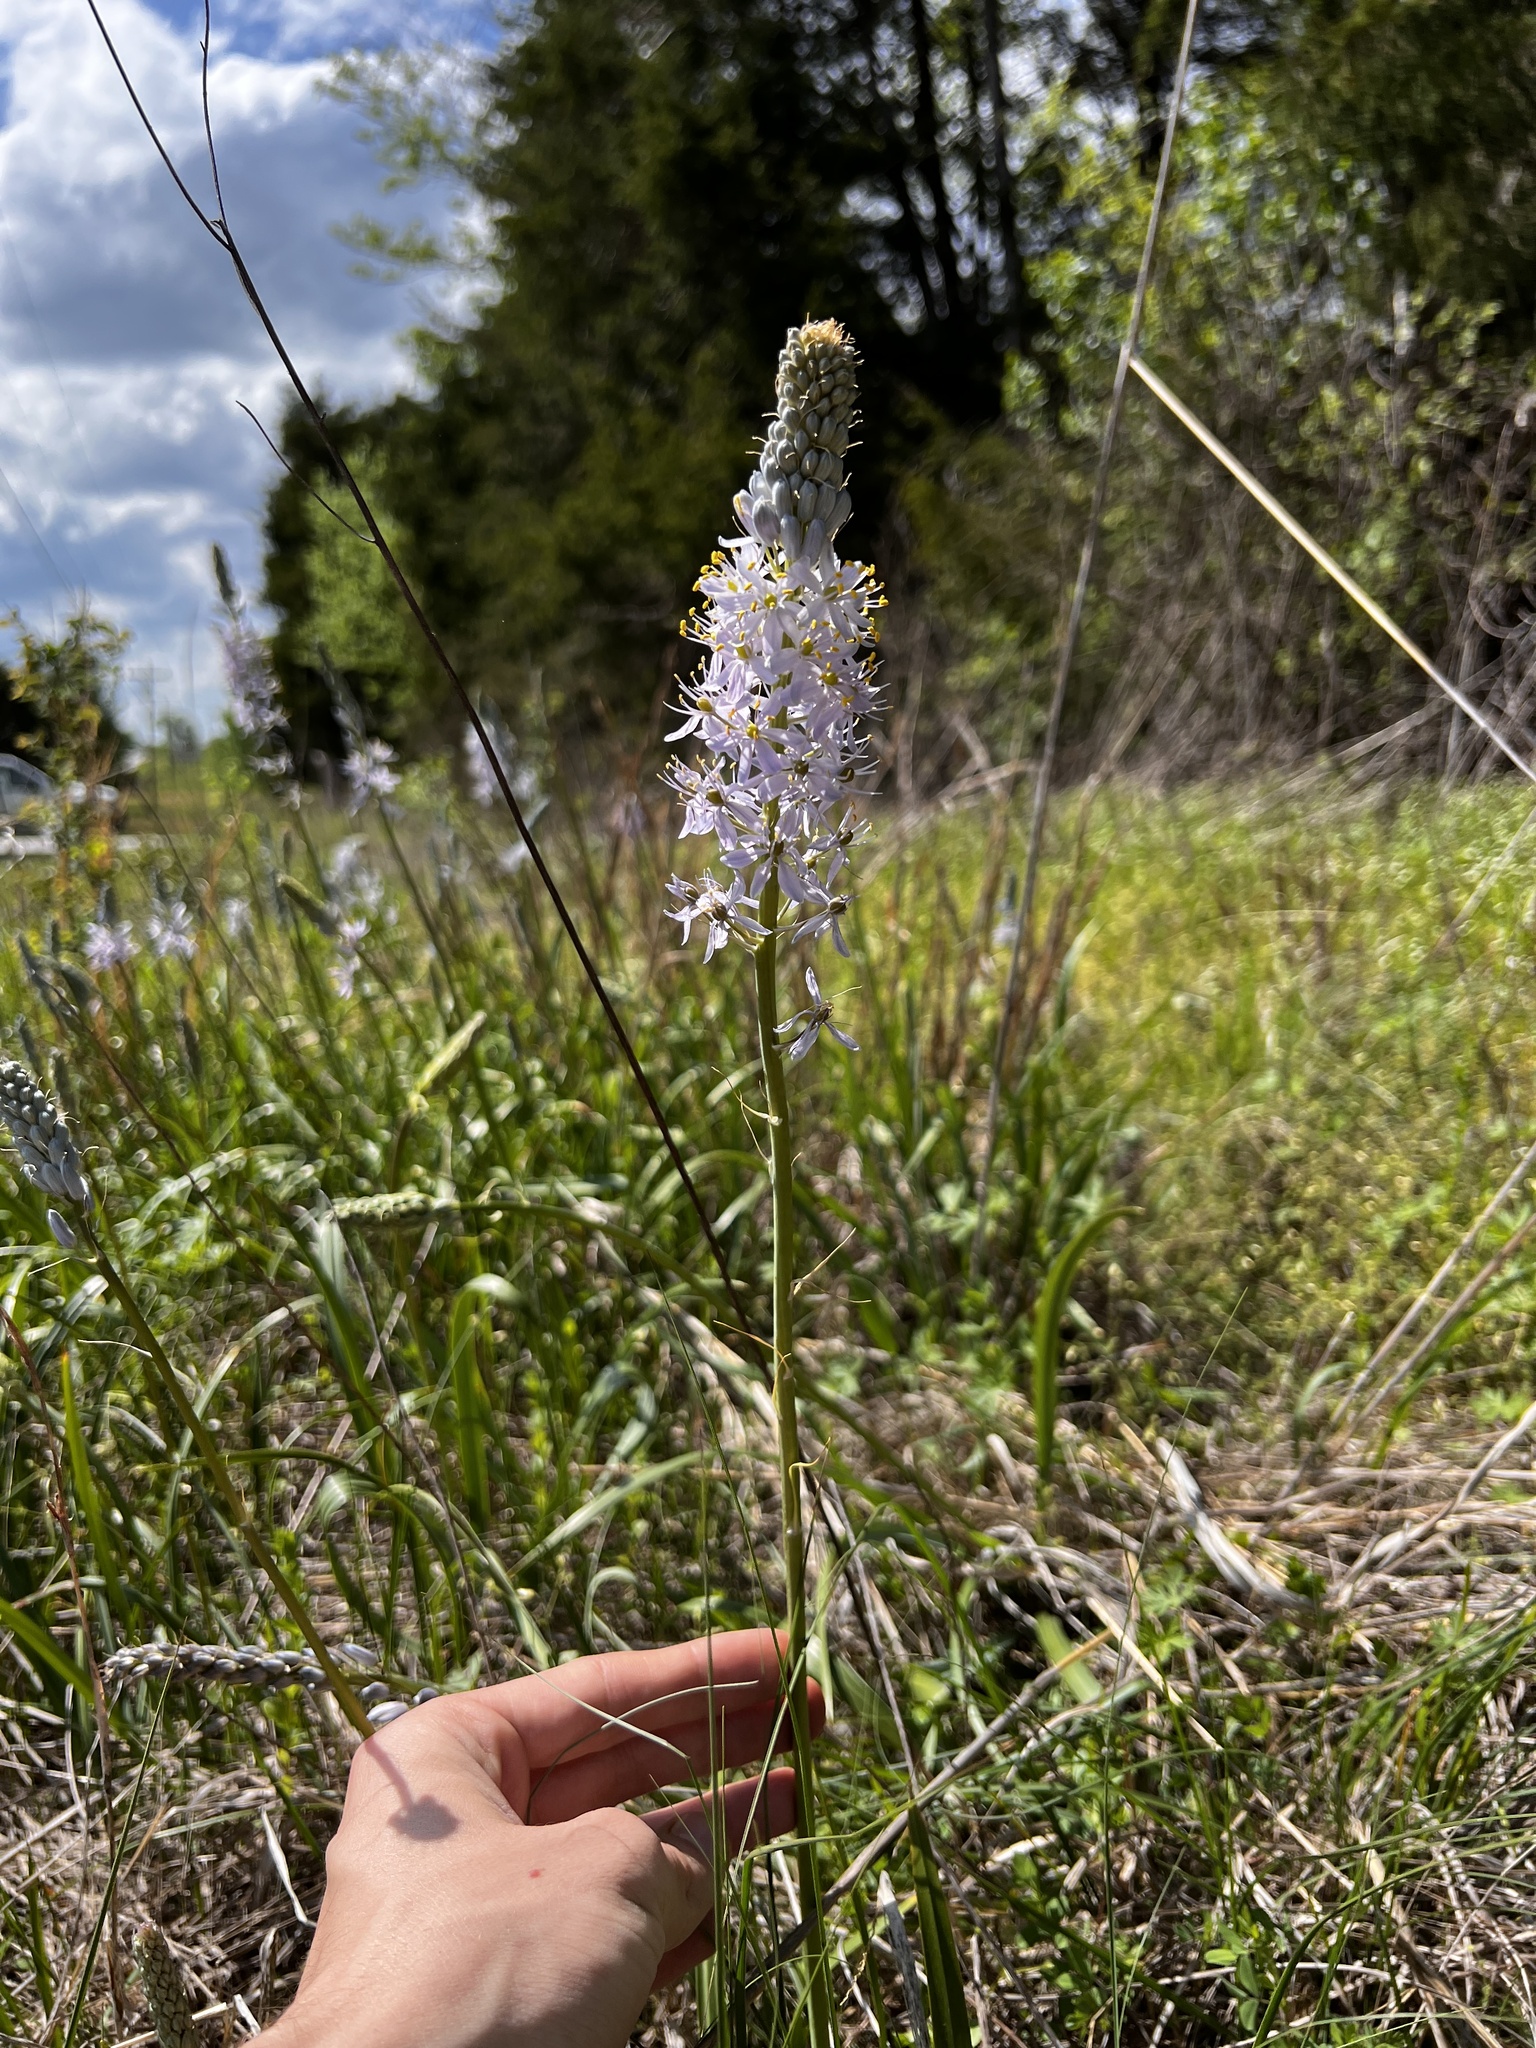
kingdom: Plantae
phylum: Tracheophyta
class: Liliopsida
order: Asparagales
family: Asparagaceae
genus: Camassia
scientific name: Camassia angusta
